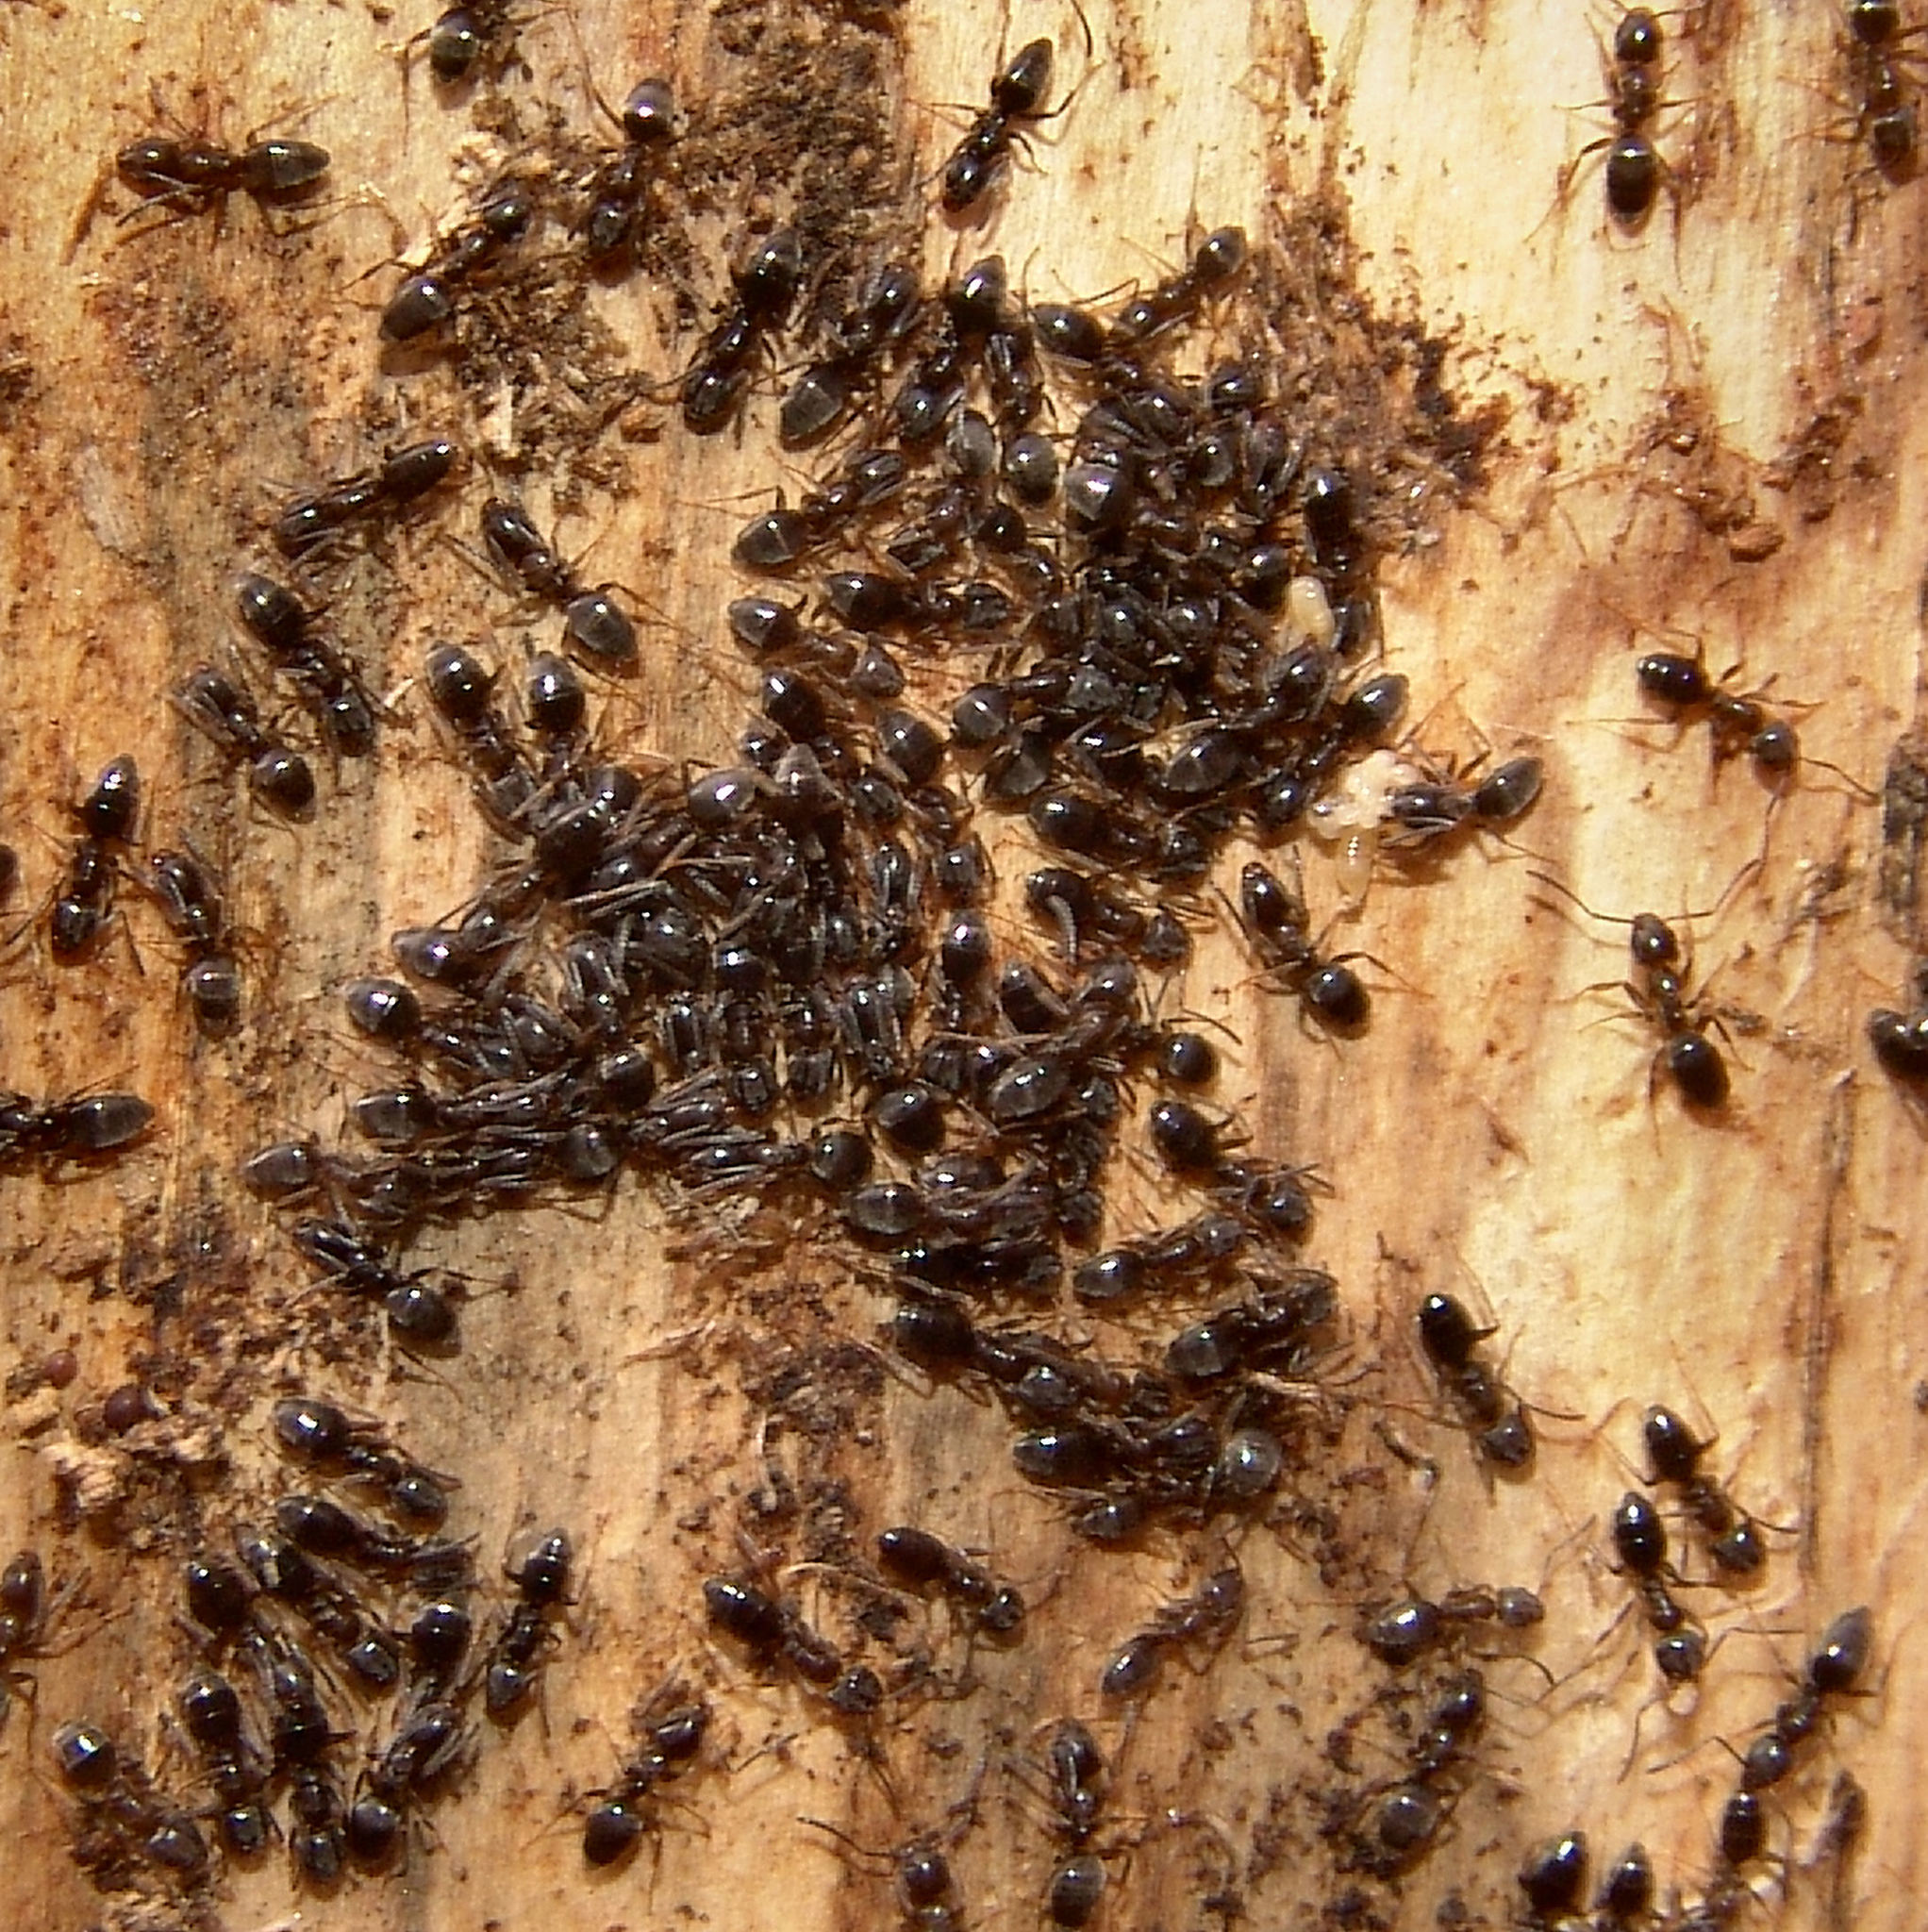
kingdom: Animalia
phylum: Arthropoda
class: Insecta
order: Hymenoptera
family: Formicidae
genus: Tapinoma
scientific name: Tapinoma sessile
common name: Odorous house ant
